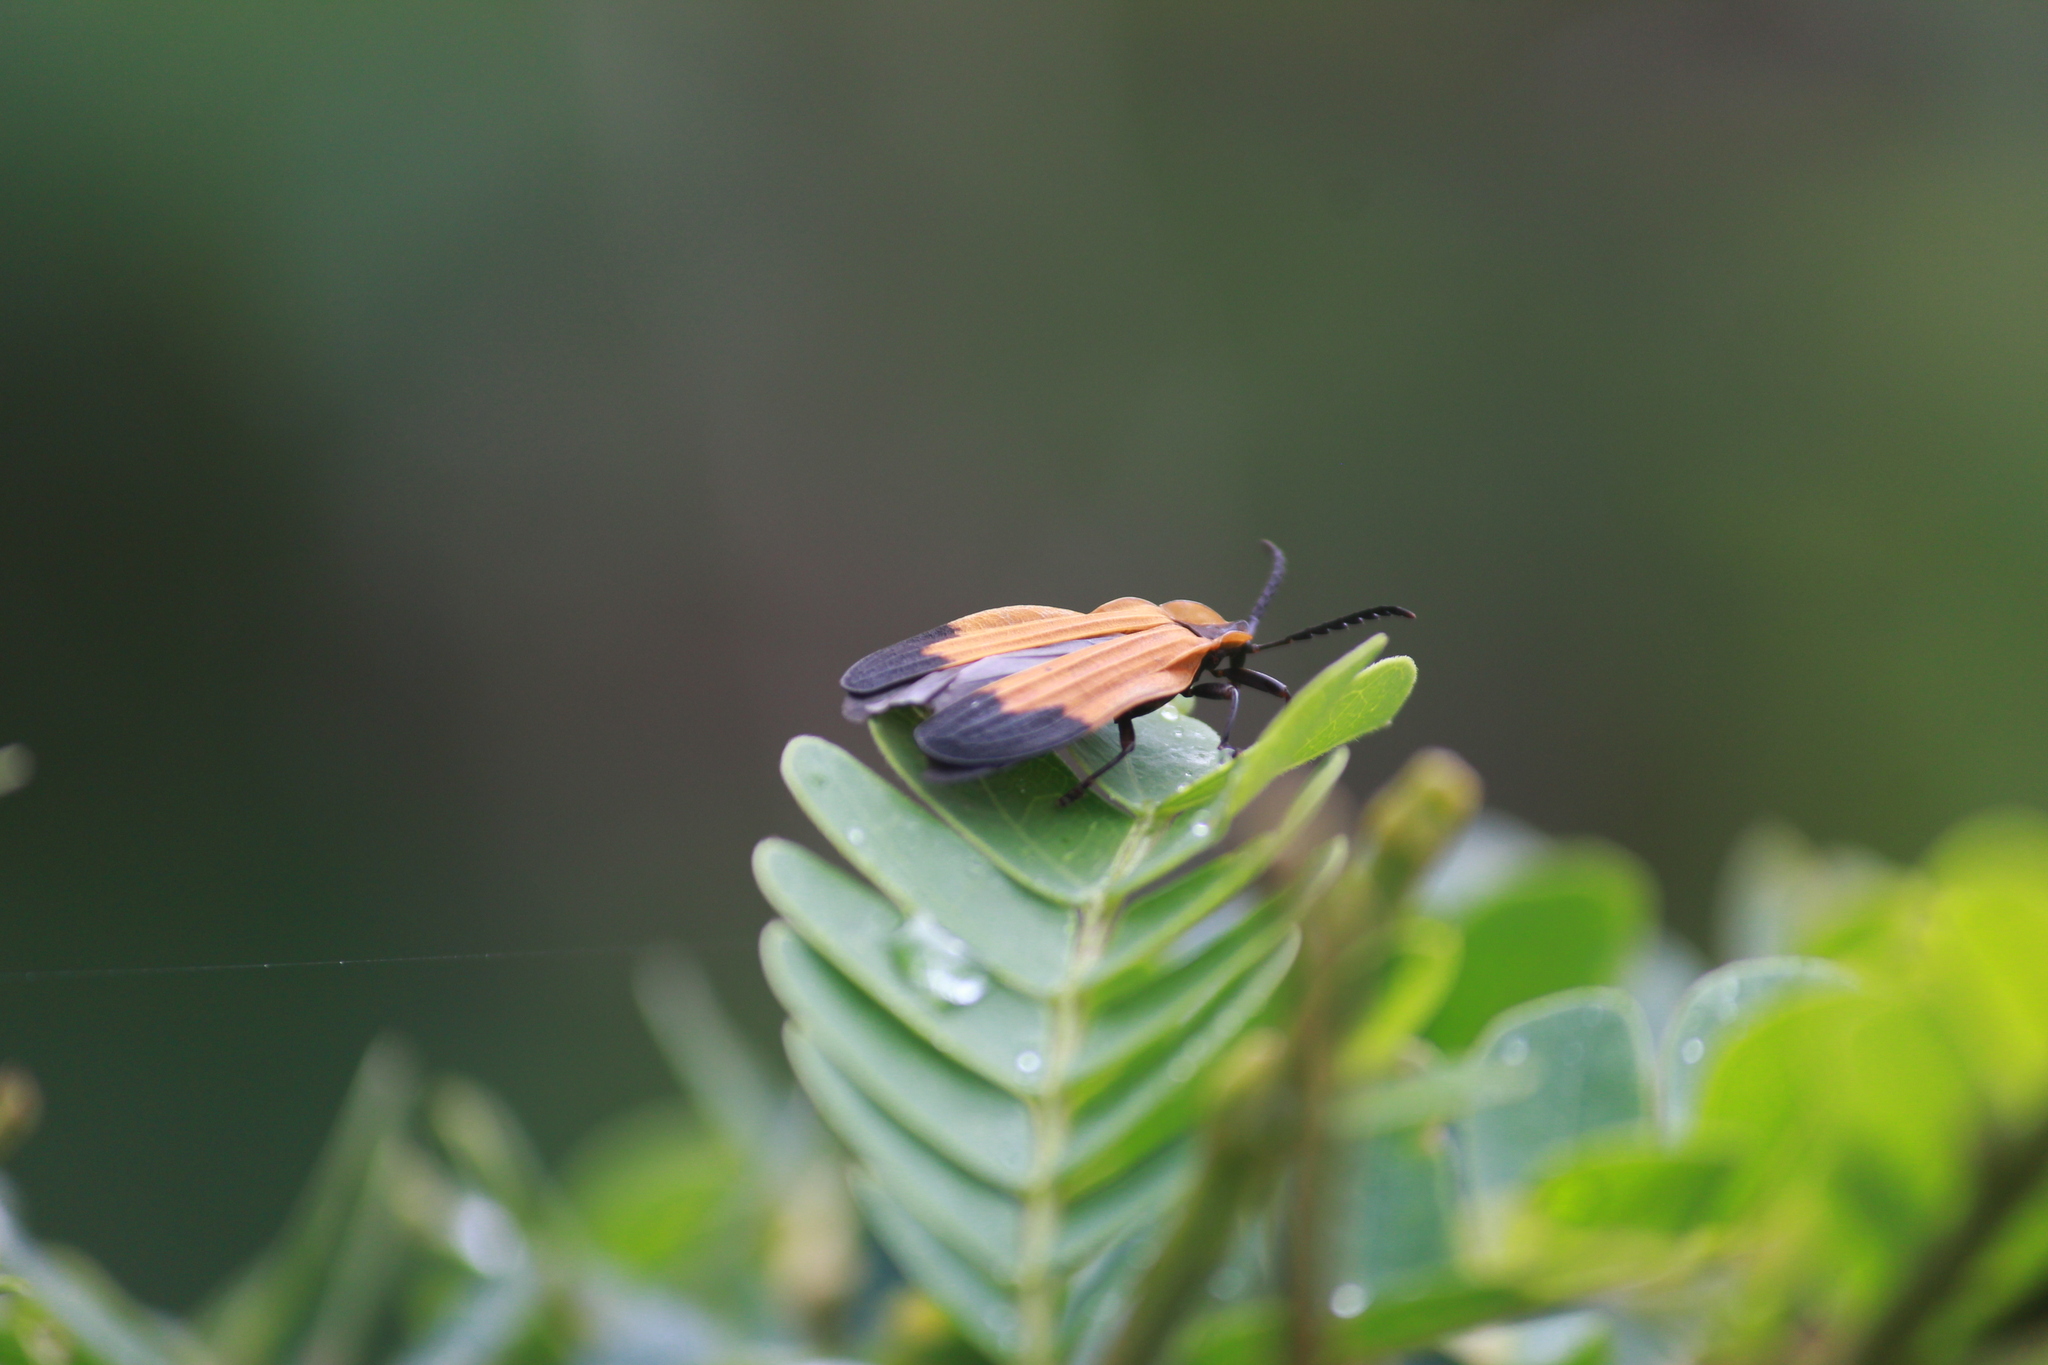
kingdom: Animalia
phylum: Arthropoda
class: Insecta
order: Coleoptera
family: Lycidae
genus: Lycus
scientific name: Lycus
